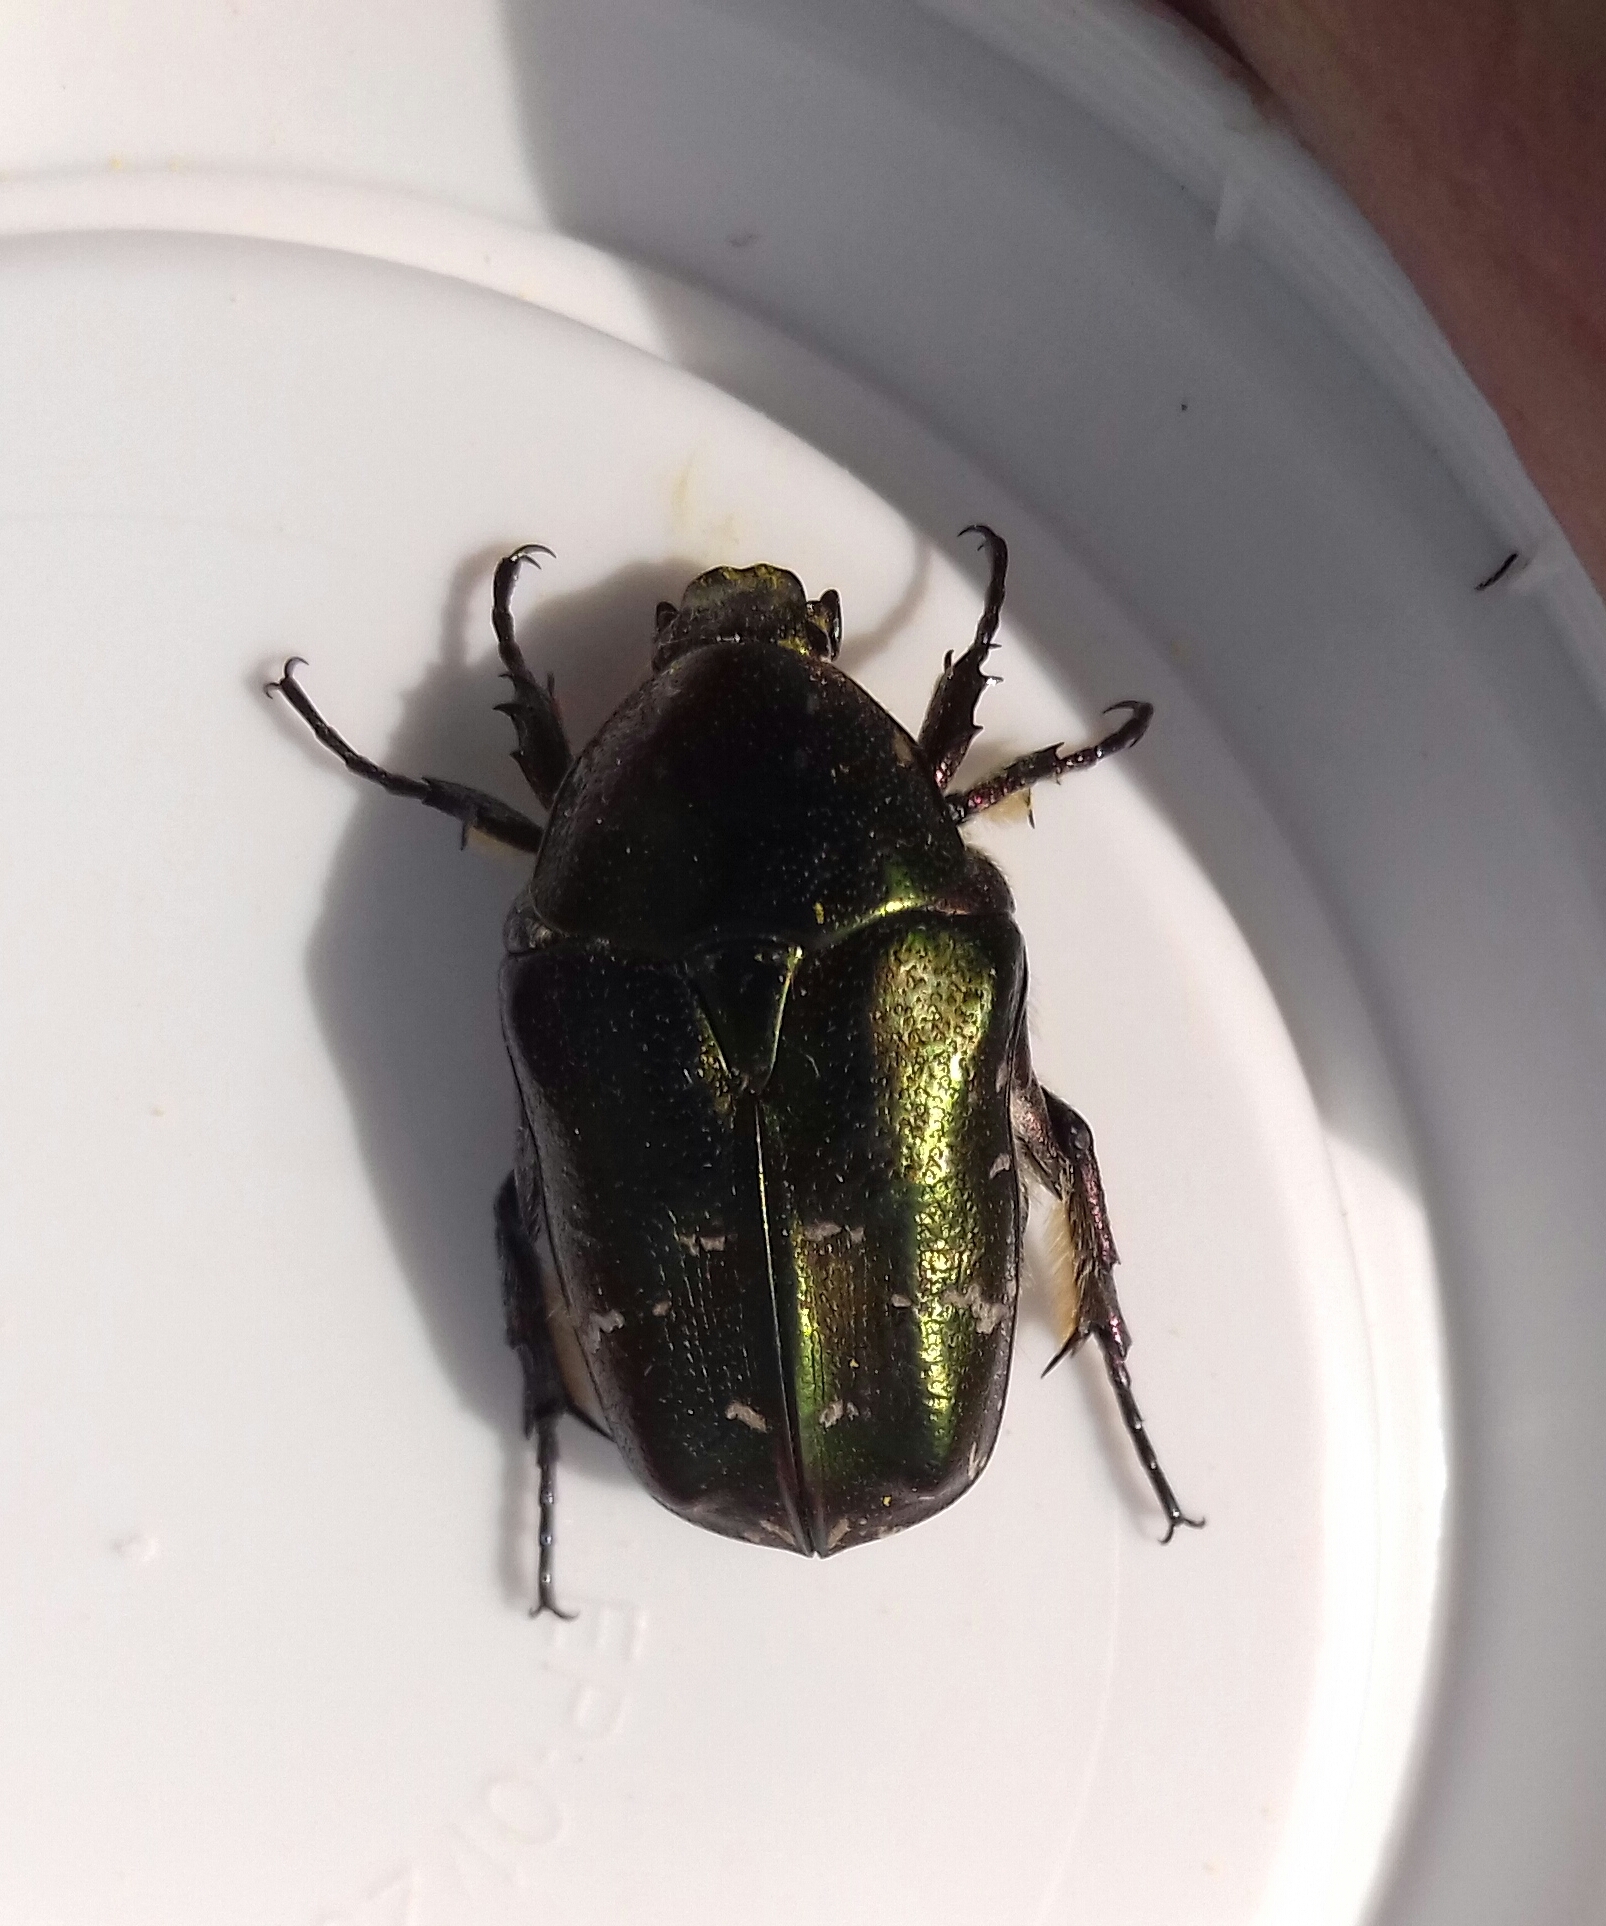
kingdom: Animalia
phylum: Arthropoda
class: Insecta
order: Coleoptera
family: Scarabaeidae
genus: Protaetia
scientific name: Protaetia cuprea
